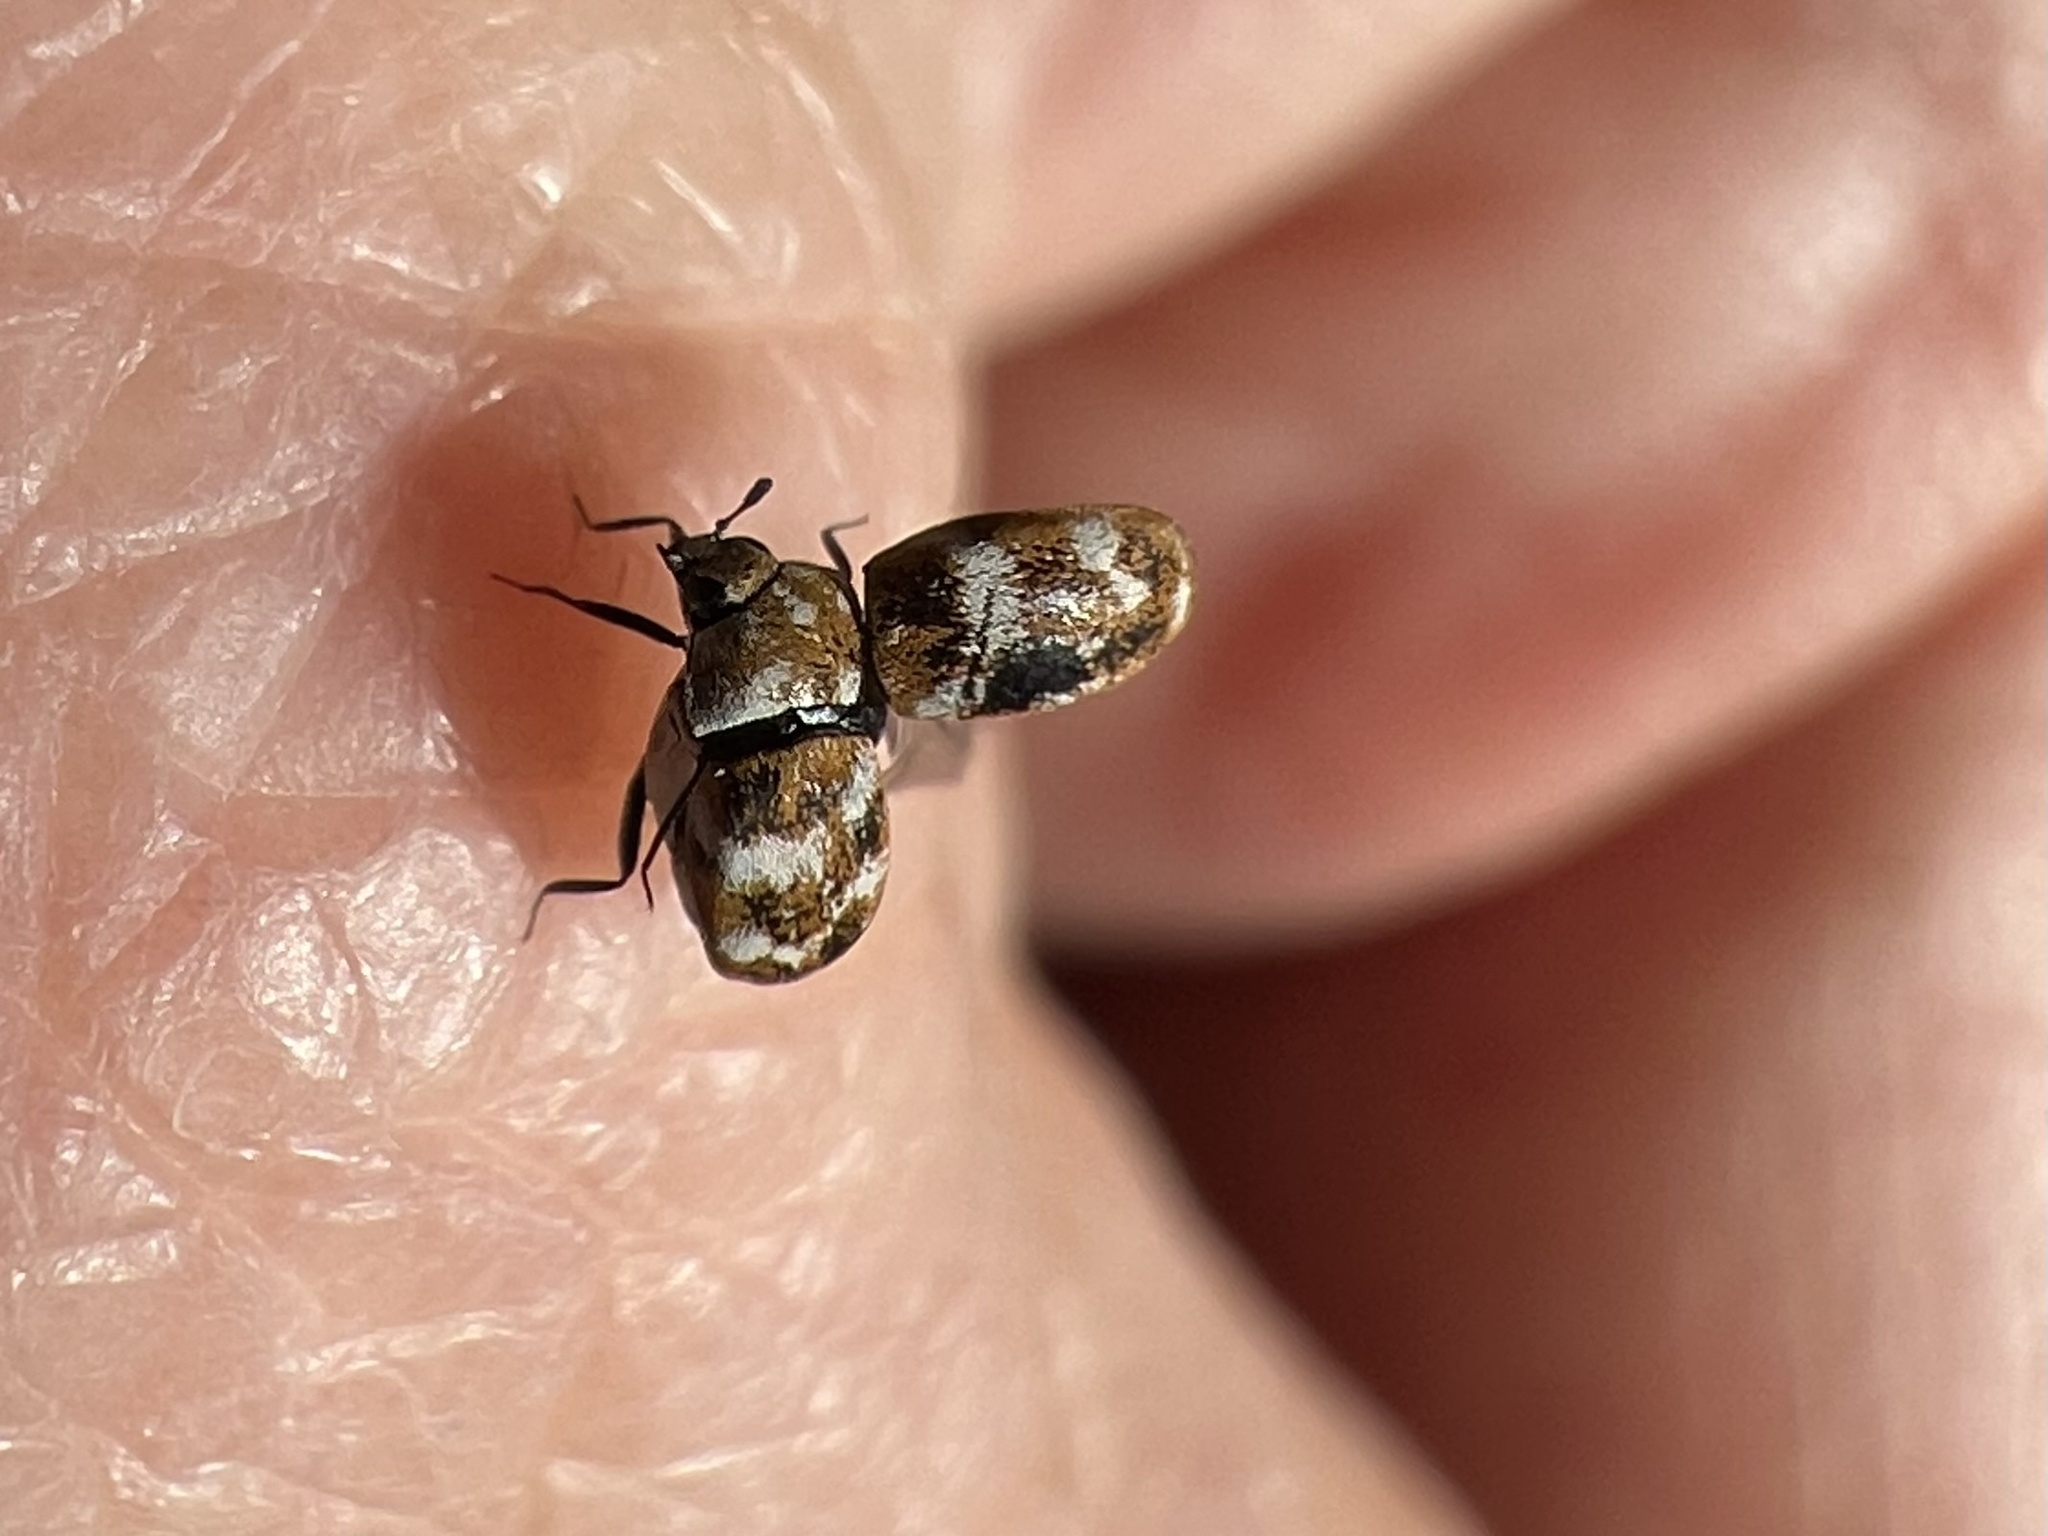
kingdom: Animalia
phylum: Arthropoda
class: Insecta
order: Coleoptera
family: Dermestidae
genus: Anthrenus
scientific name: Anthrenus verbasci
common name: Varied carpet beetle
